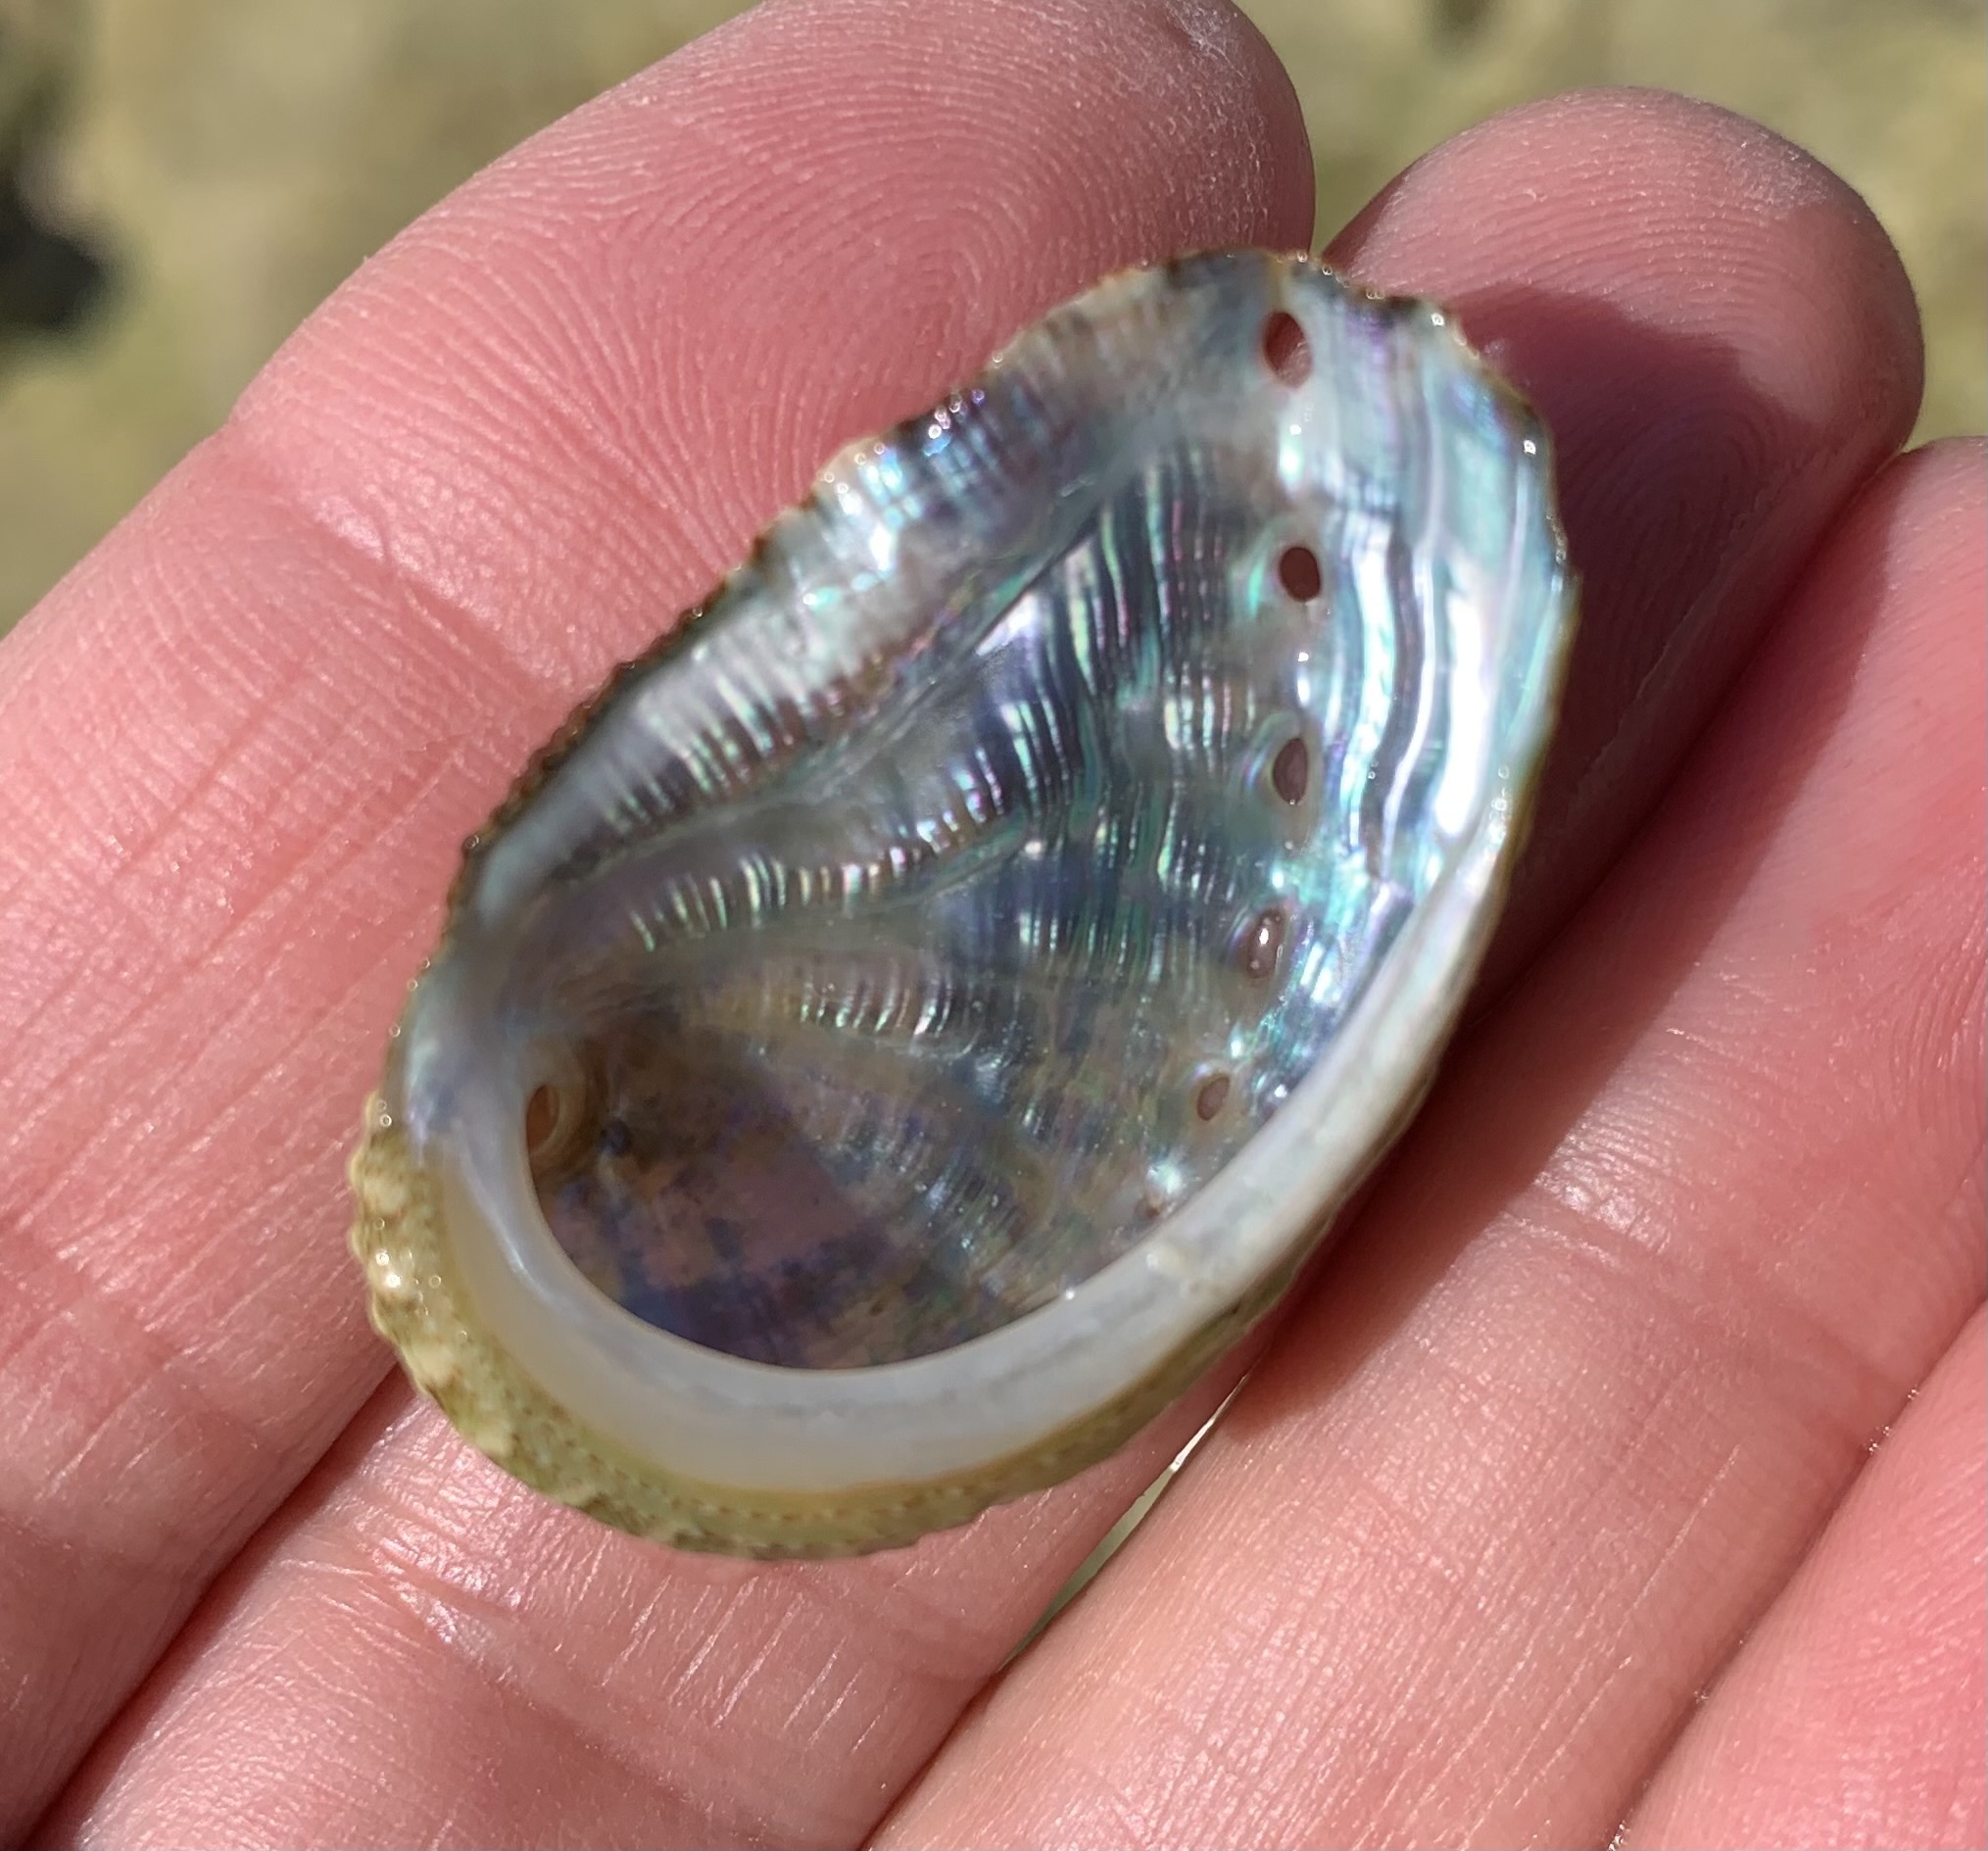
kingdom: Animalia
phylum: Mollusca
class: Gastropoda
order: Lepetellida
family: Haliotidae
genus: Haliotis
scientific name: Haliotis tuberculata
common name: Green ormer
